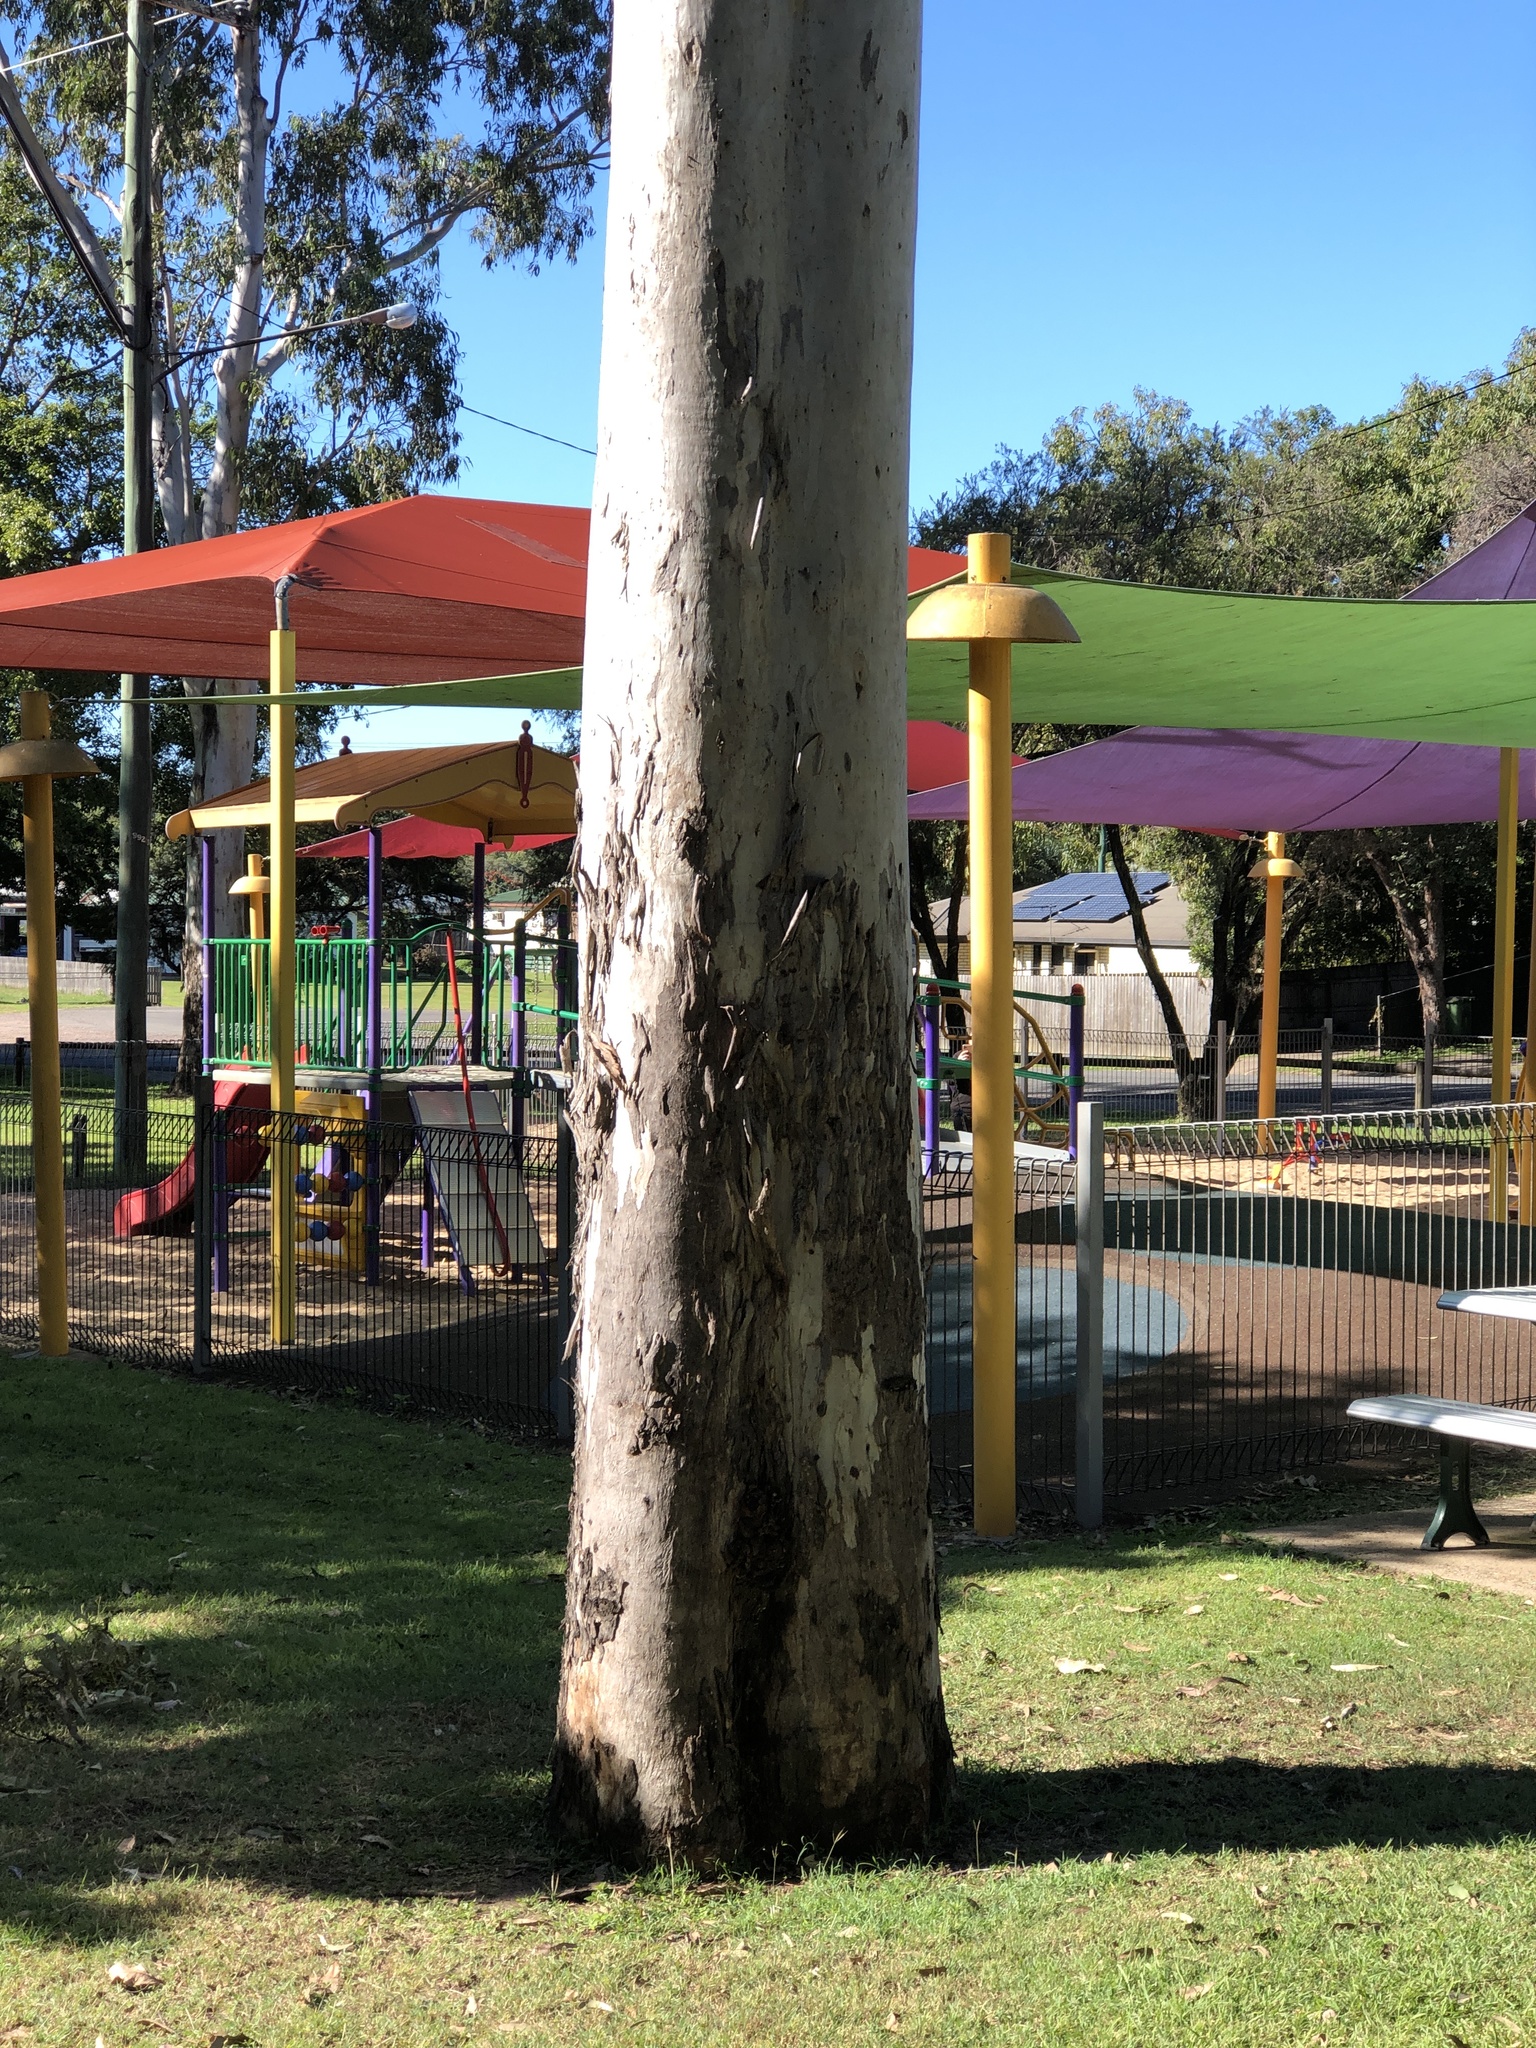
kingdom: Plantae
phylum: Tracheophyta
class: Magnoliopsida
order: Myrtales
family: Myrtaceae
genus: Eucalyptus
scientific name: Eucalyptus tereticornis
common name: Forest redgum
